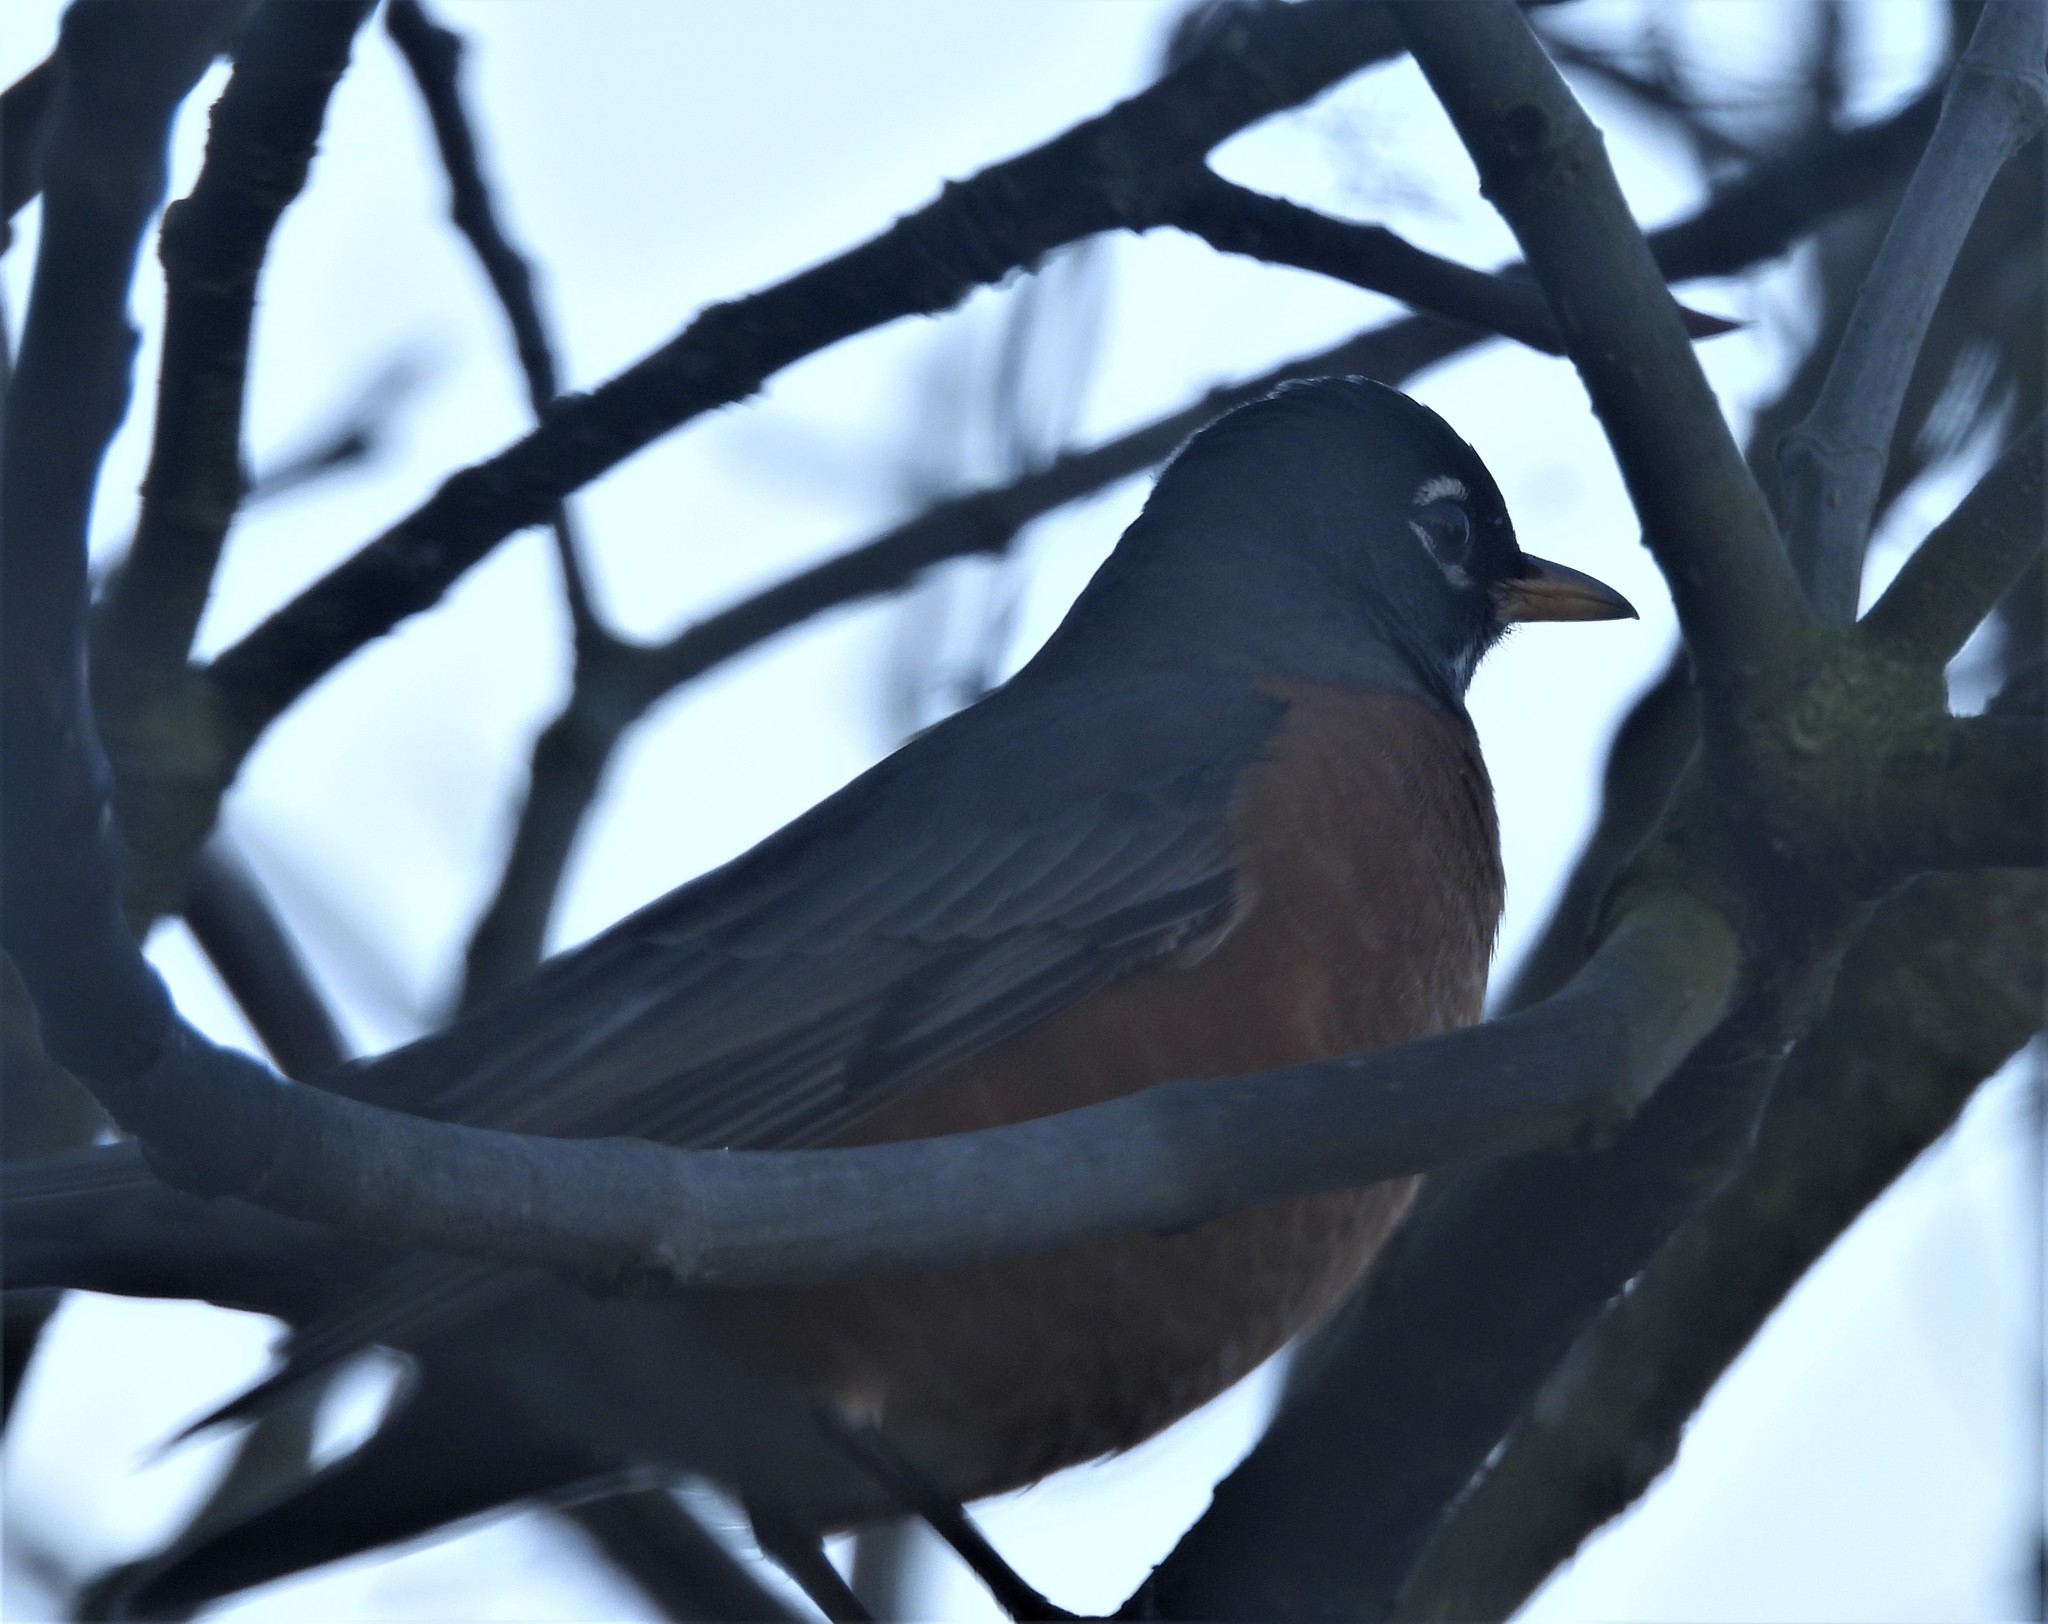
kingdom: Animalia
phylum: Chordata
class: Aves
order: Passeriformes
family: Turdidae
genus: Turdus
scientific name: Turdus migratorius
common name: American robin
